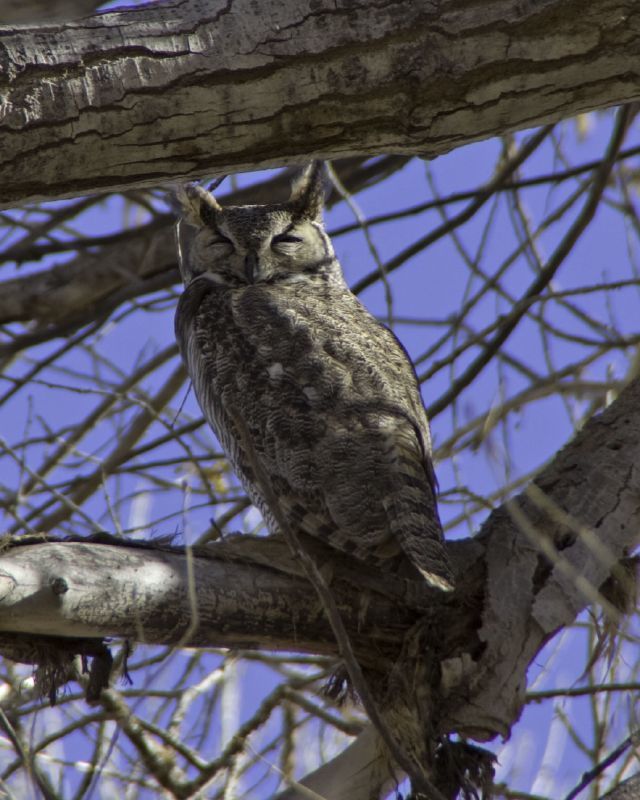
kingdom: Animalia
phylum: Chordata
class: Aves
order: Strigiformes
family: Strigidae
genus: Bubo
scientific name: Bubo virginianus
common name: Great horned owl
